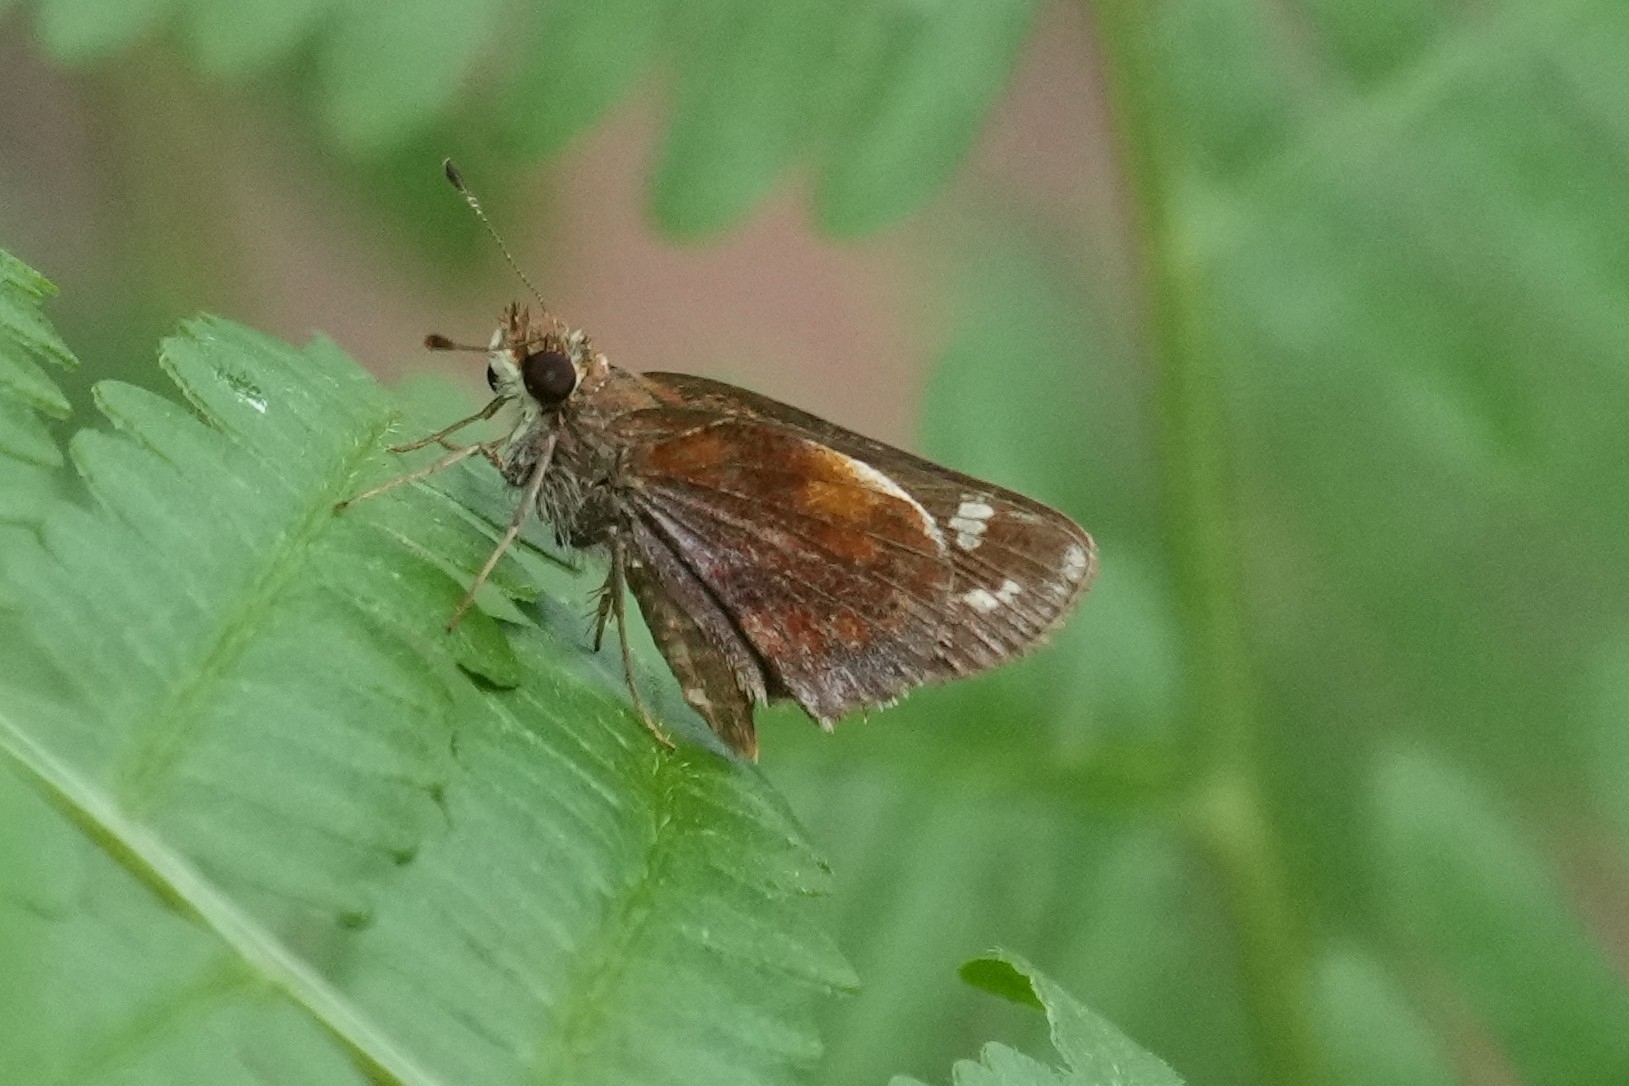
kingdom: Animalia
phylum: Arthropoda
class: Insecta
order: Lepidoptera
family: Hesperiidae
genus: Lon
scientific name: Lon zabulon
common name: Zabulon skipper
